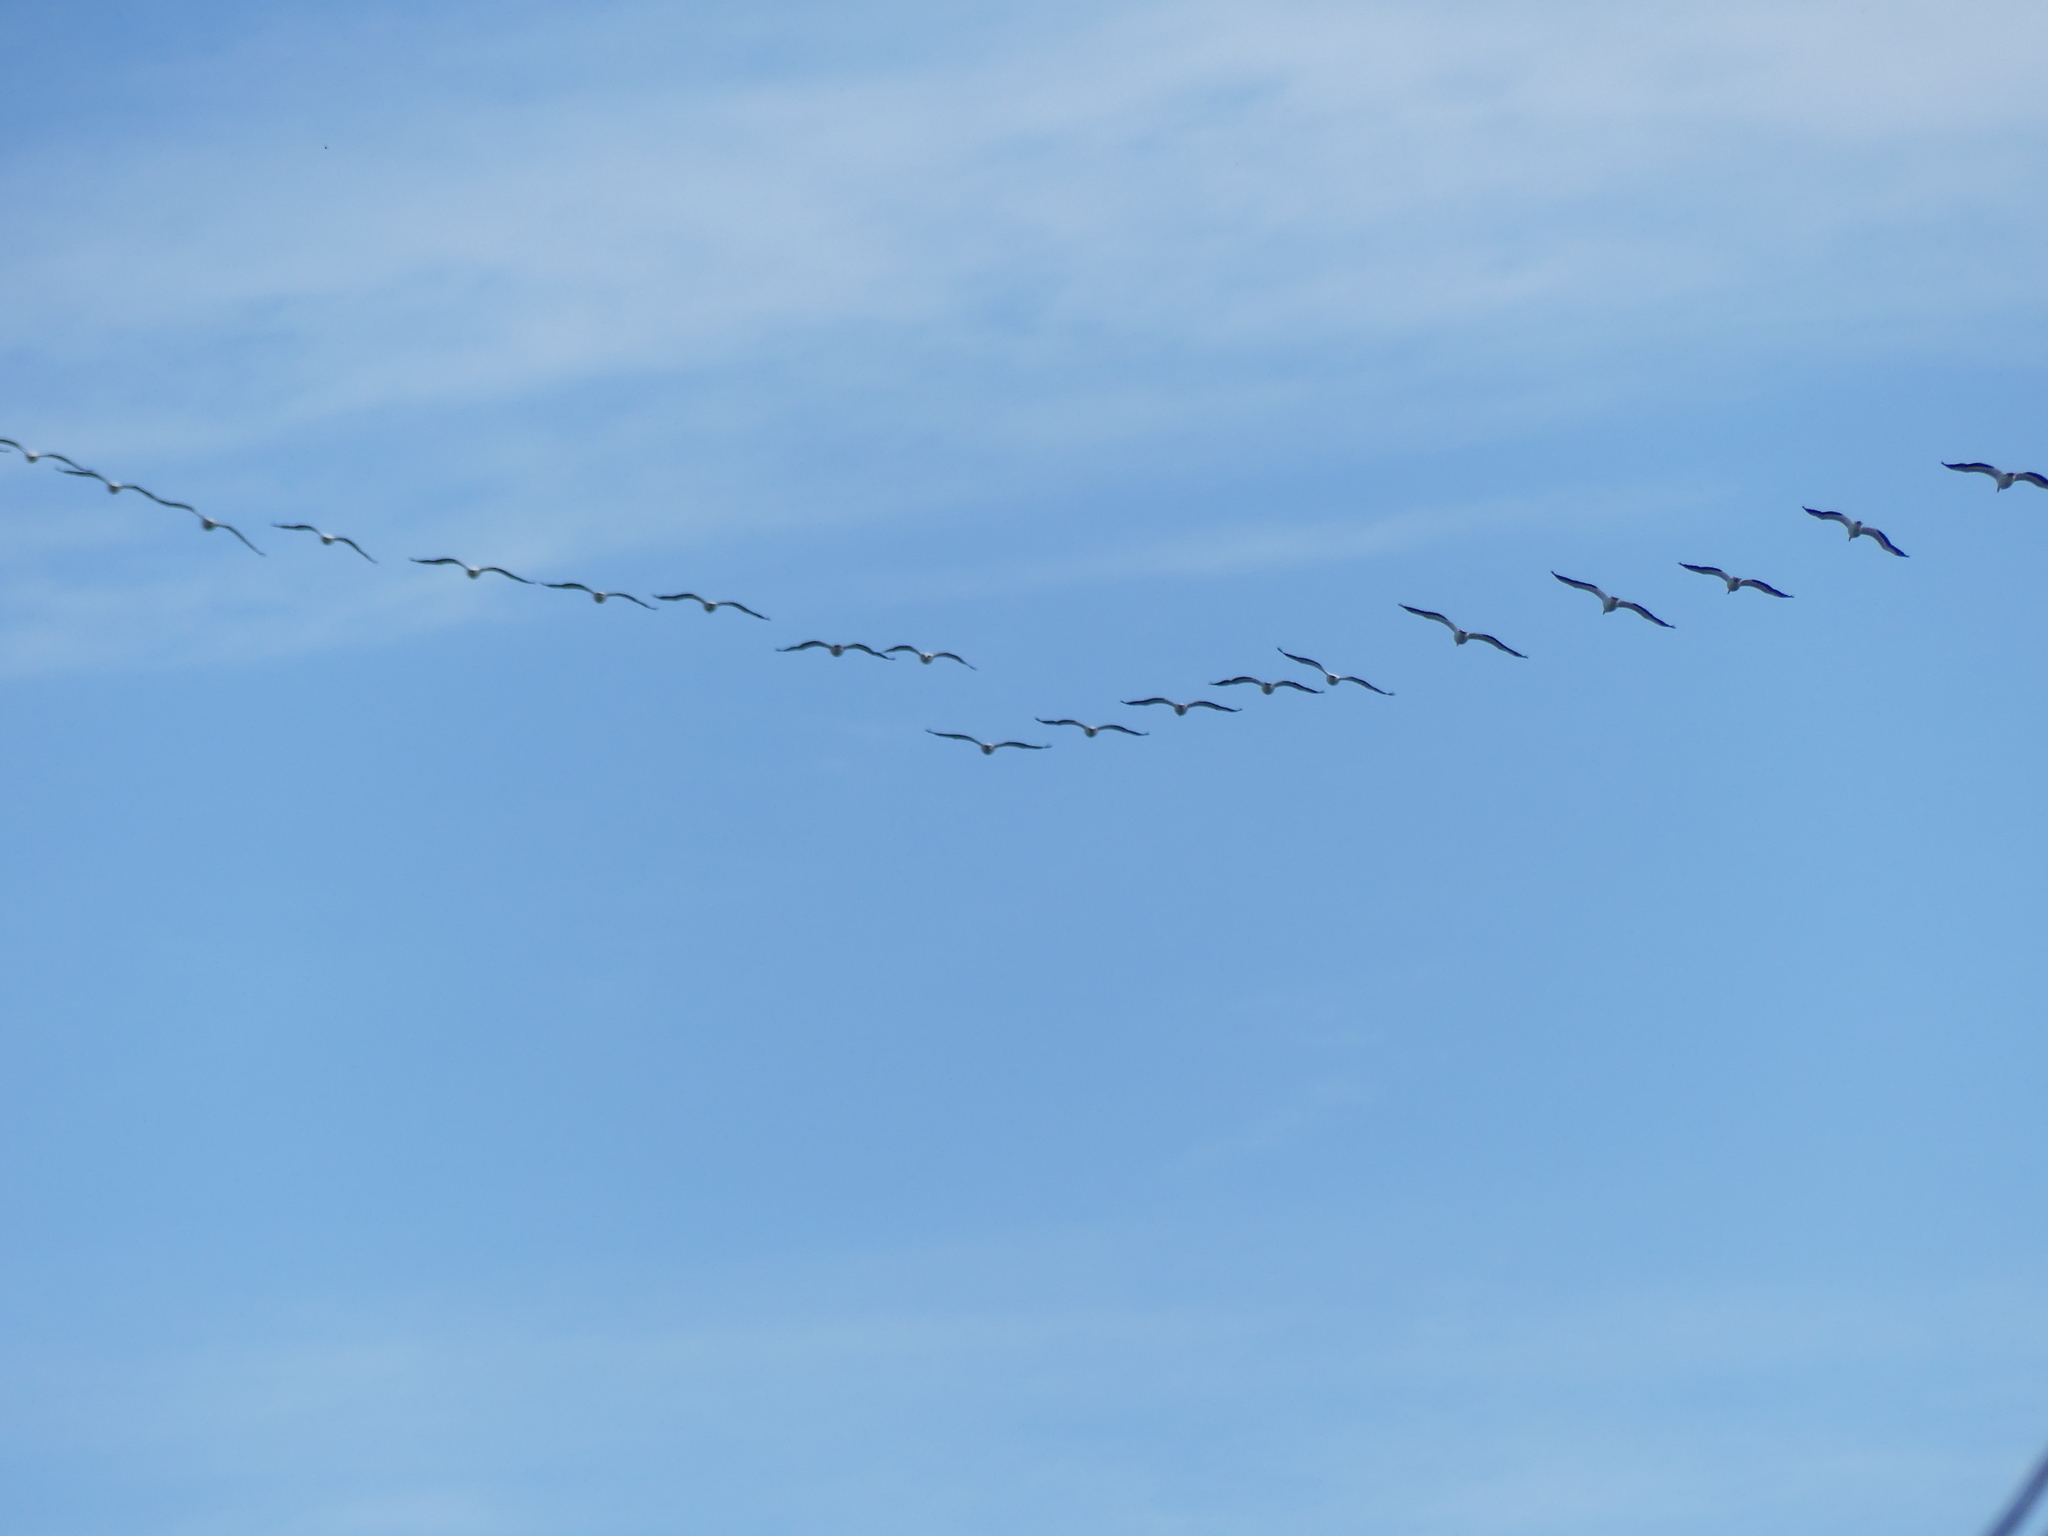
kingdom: Animalia
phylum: Chordata
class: Aves
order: Pelecaniformes
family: Pelecanidae
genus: Pelecanus
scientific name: Pelecanus erythrorhynchos
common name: American white pelican
